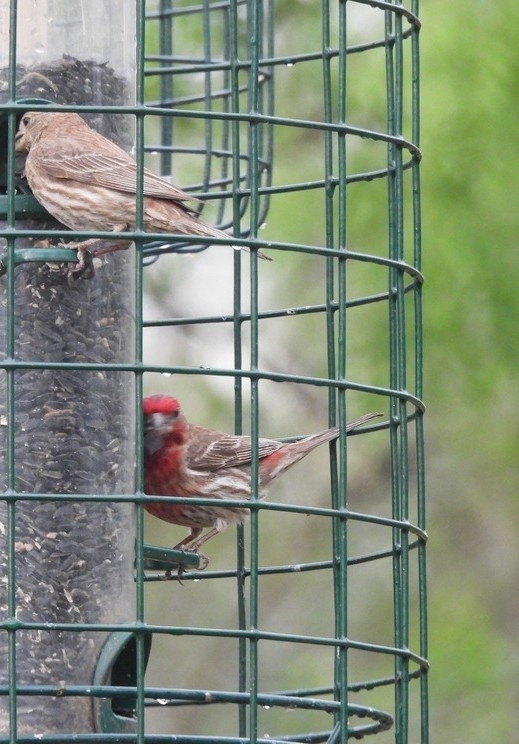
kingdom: Animalia
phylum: Chordata
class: Aves
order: Passeriformes
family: Fringillidae
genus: Haemorhous
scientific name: Haemorhous mexicanus
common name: House finch
